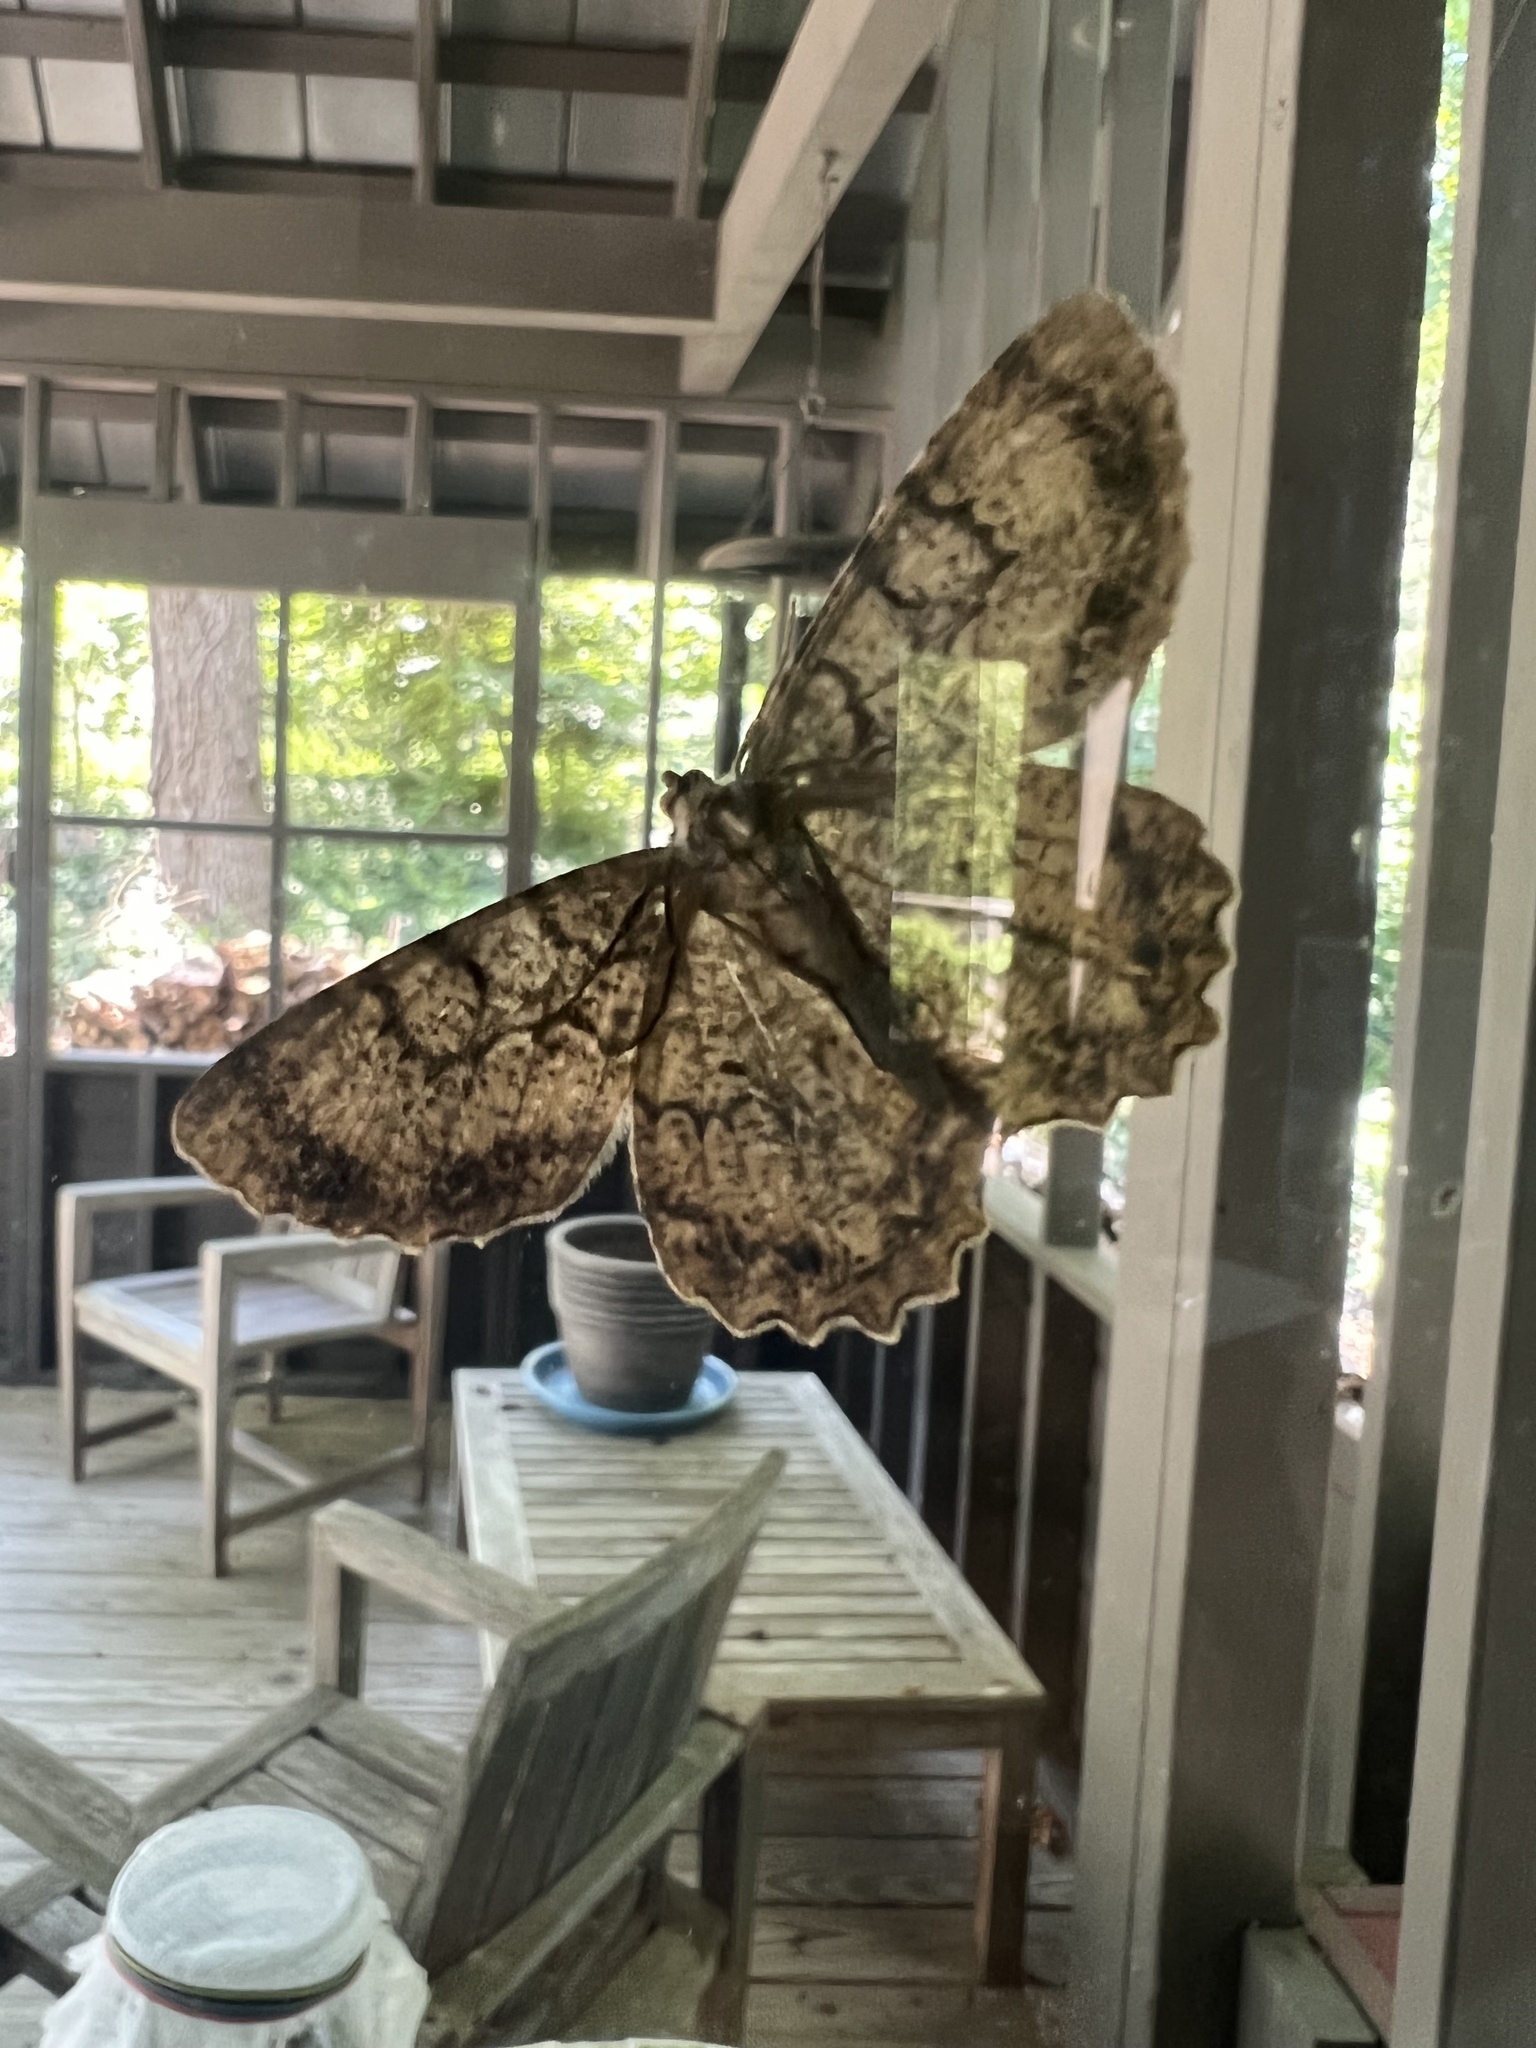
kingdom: Animalia
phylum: Arthropoda
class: Insecta
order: Lepidoptera
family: Geometridae
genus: Epimecis
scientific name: Epimecis hortaria
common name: Tulip-tree beauty
